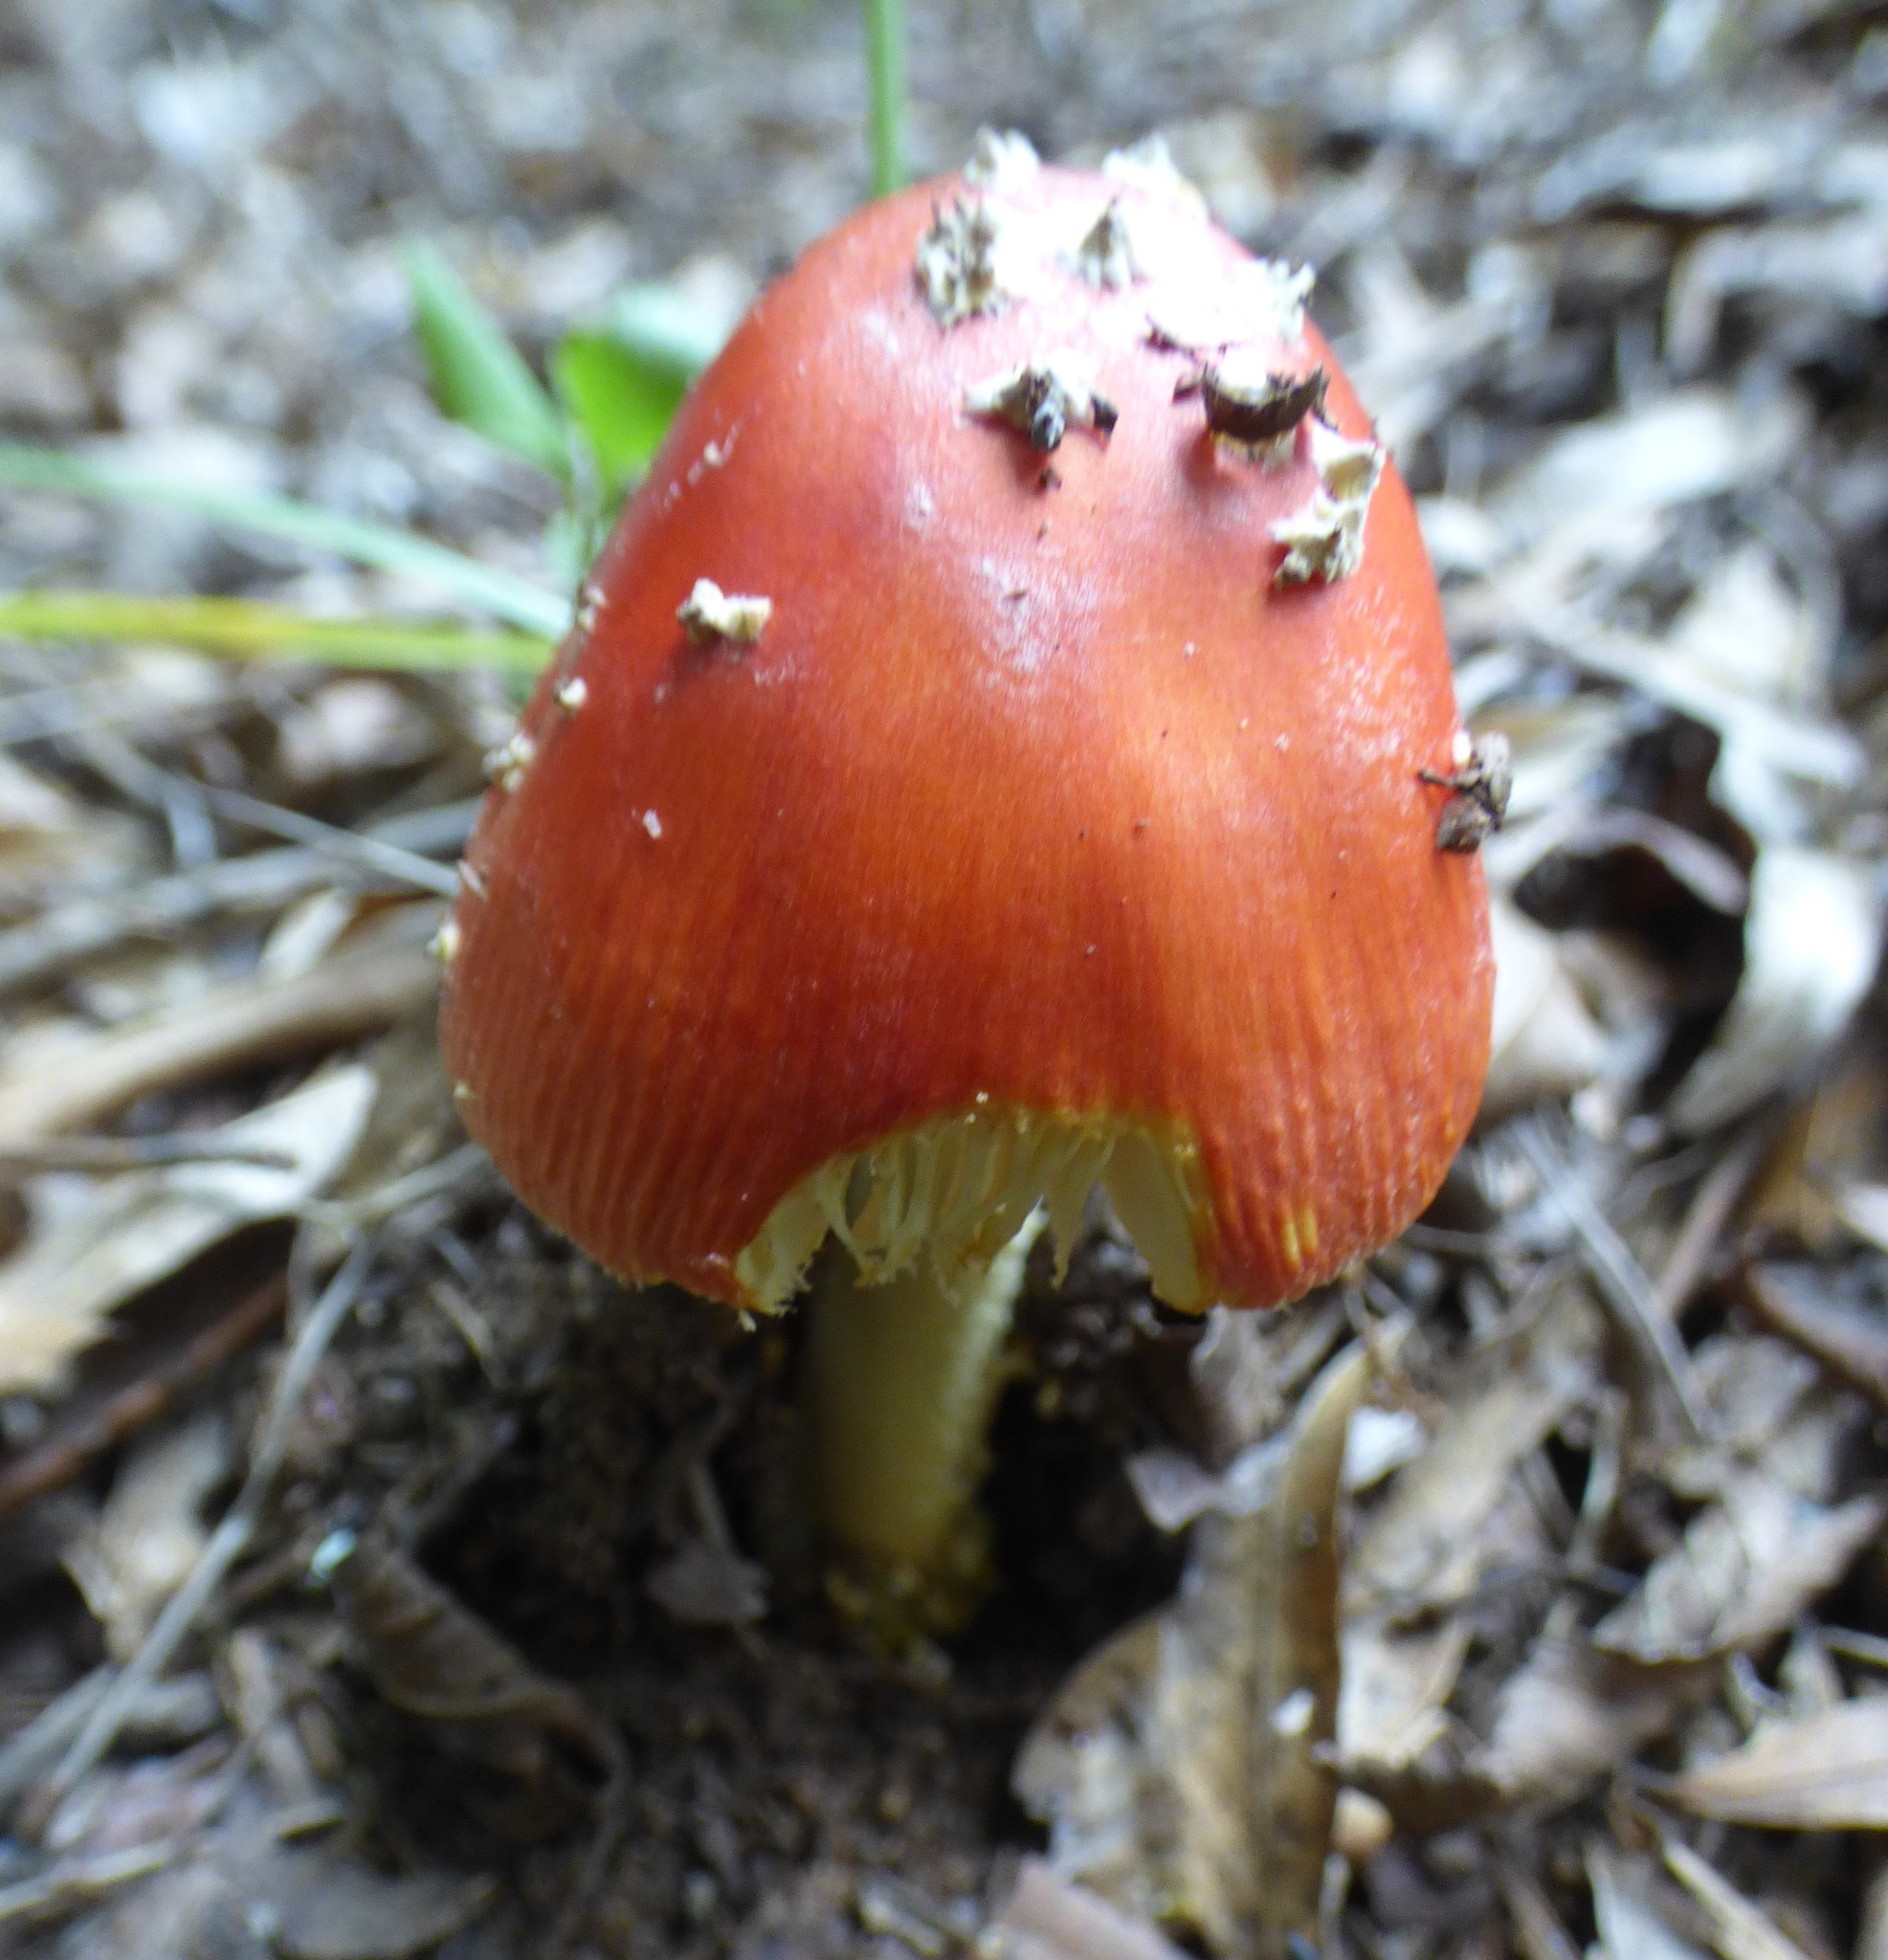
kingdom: Fungi
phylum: Basidiomycota
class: Agaricomycetes
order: Agaricales
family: Amanitaceae
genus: Amanita
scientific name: Amanita parcivolvata
